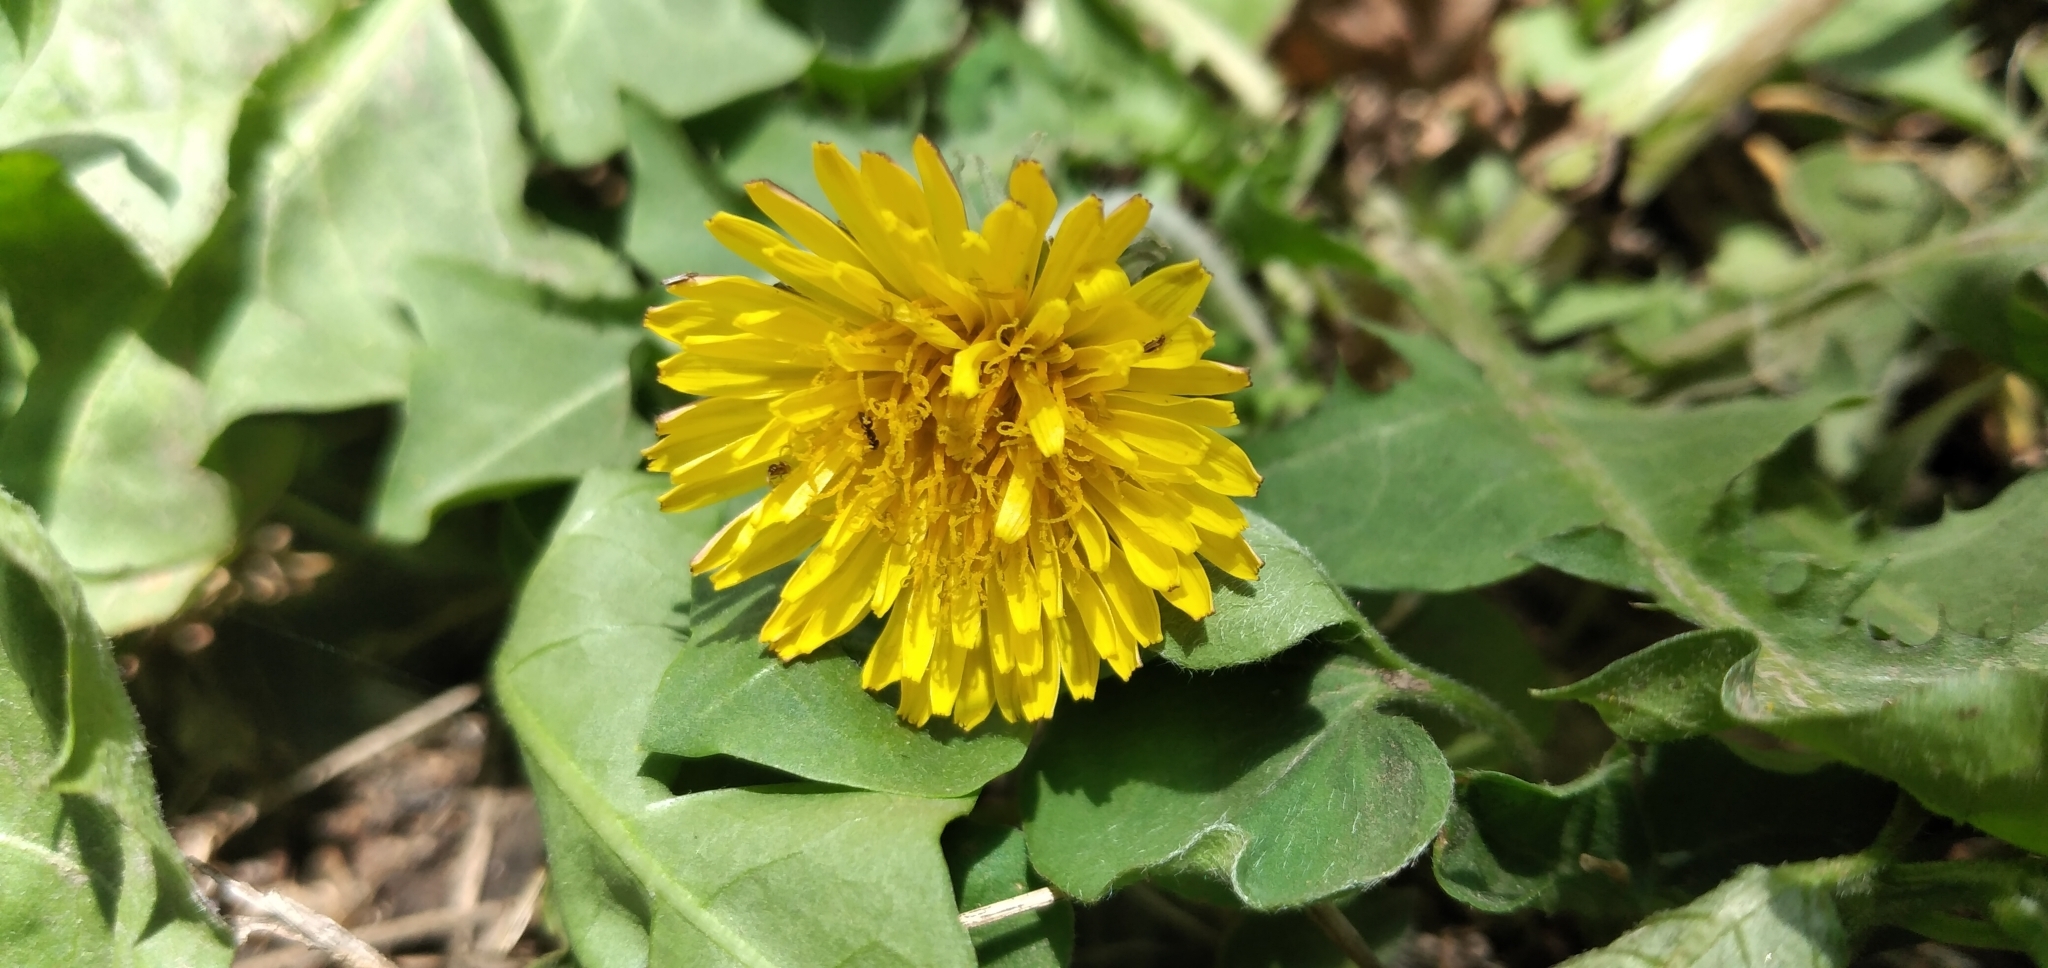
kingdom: Plantae
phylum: Tracheophyta
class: Magnoliopsida
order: Asterales
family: Asteraceae
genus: Taraxacum
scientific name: Taraxacum officinale
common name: Common dandelion
